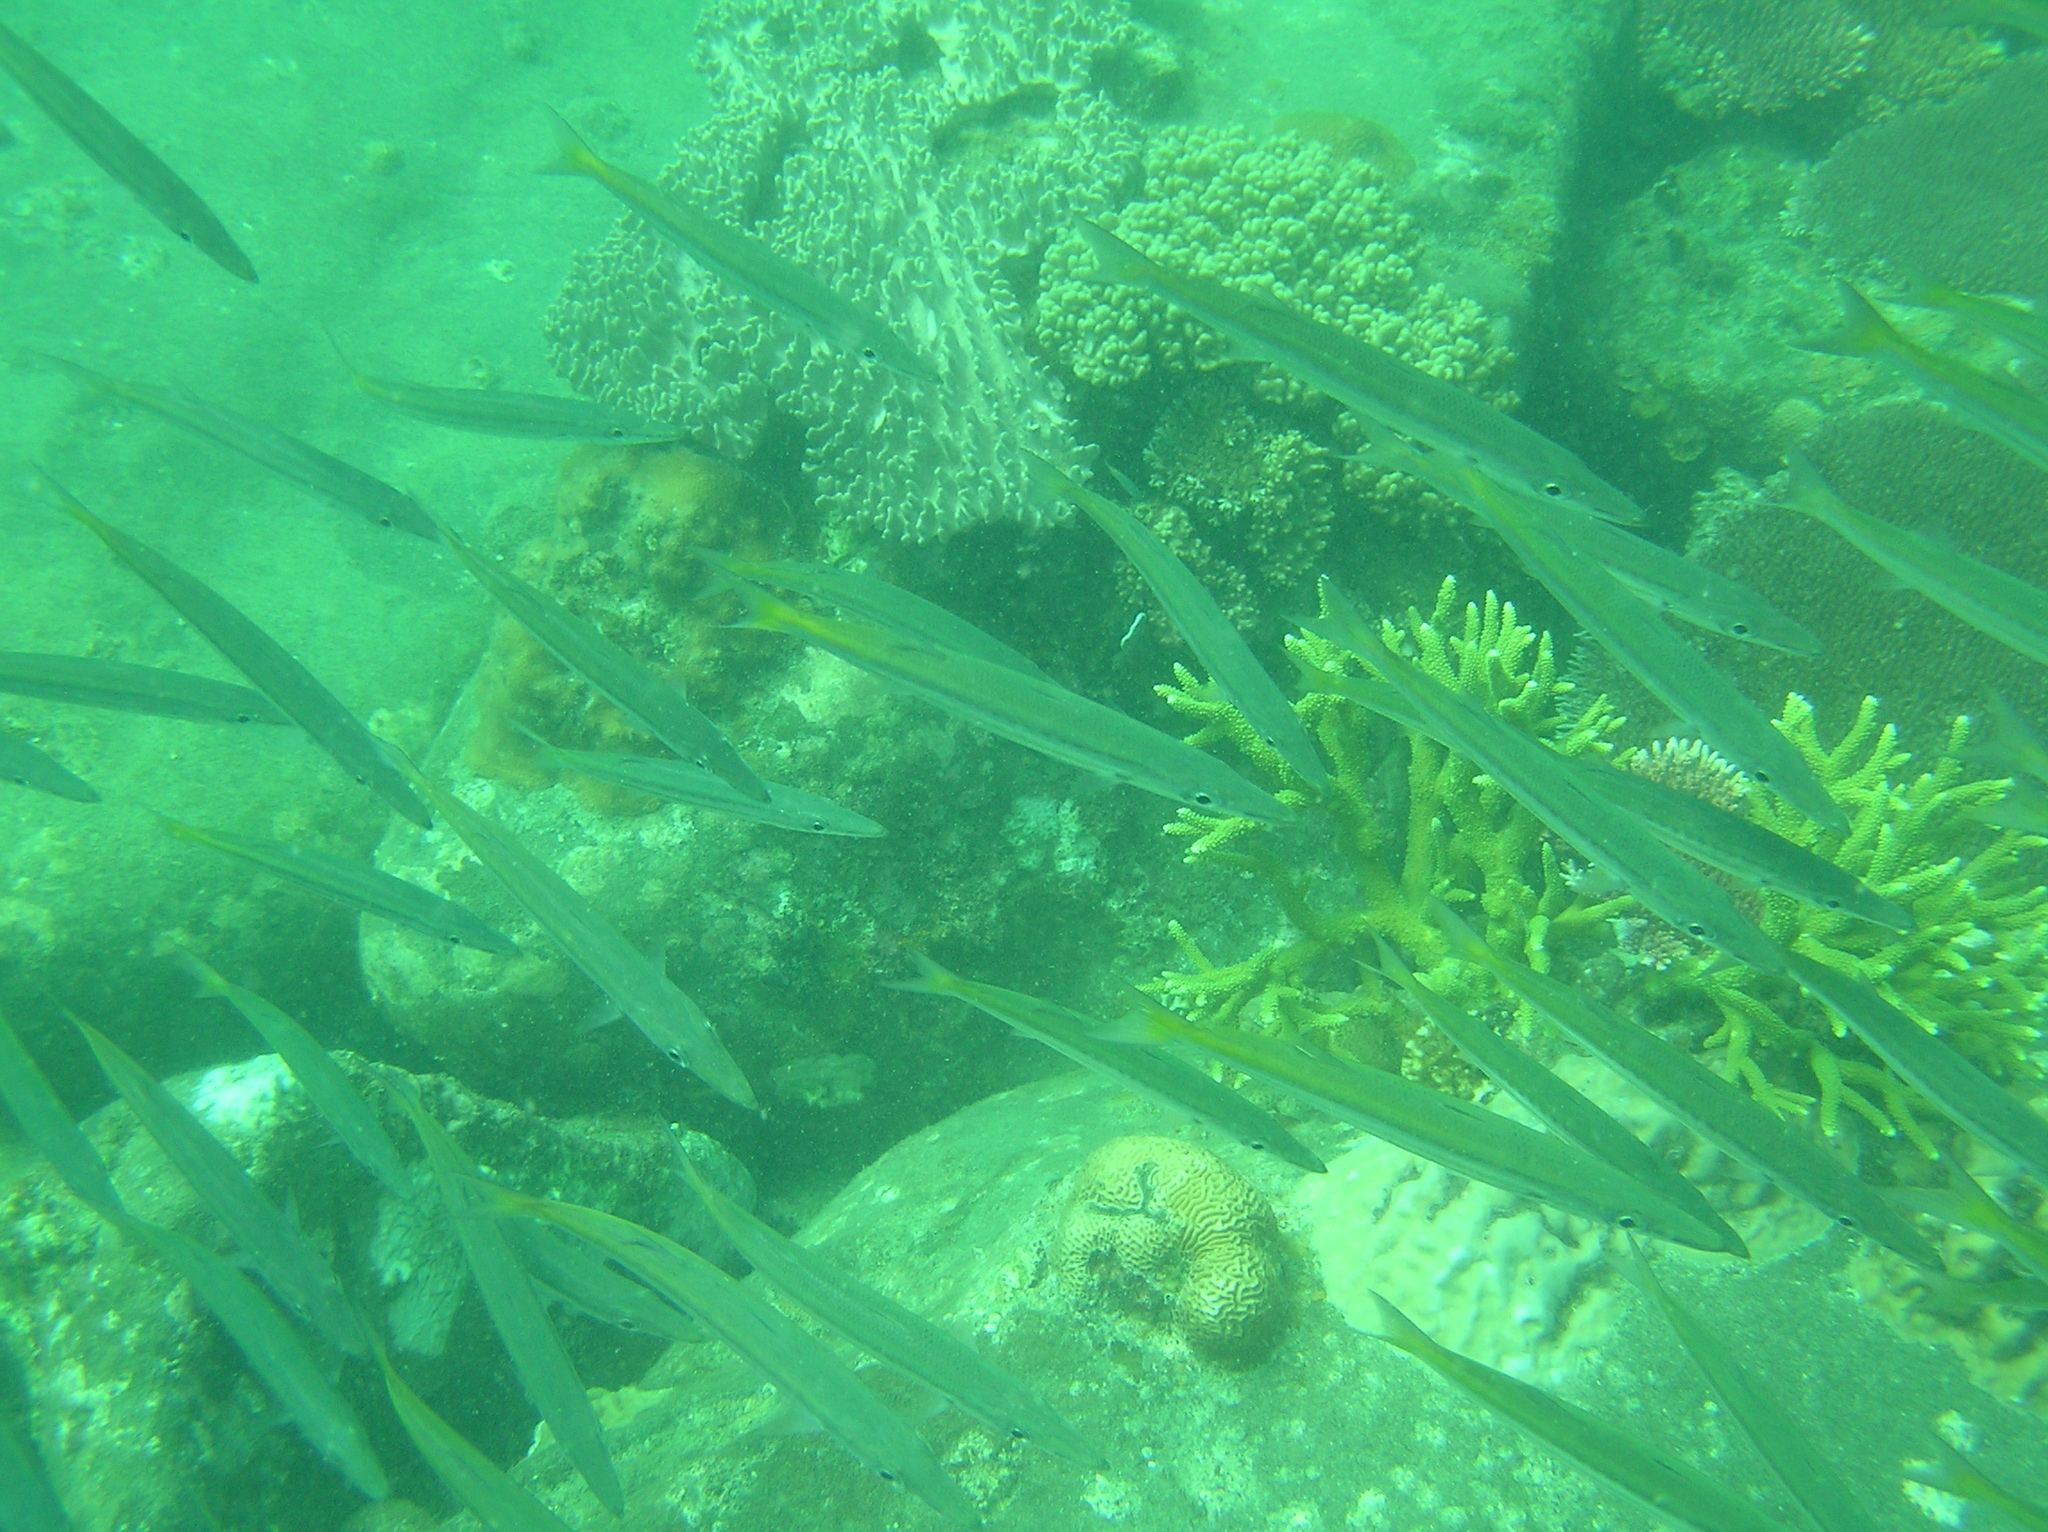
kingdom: Animalia
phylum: Chordata
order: Perciformes
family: Sphyraenidae
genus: Sphyraena
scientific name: Sphyraena flavicauda
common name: Yellowtail barracuda
